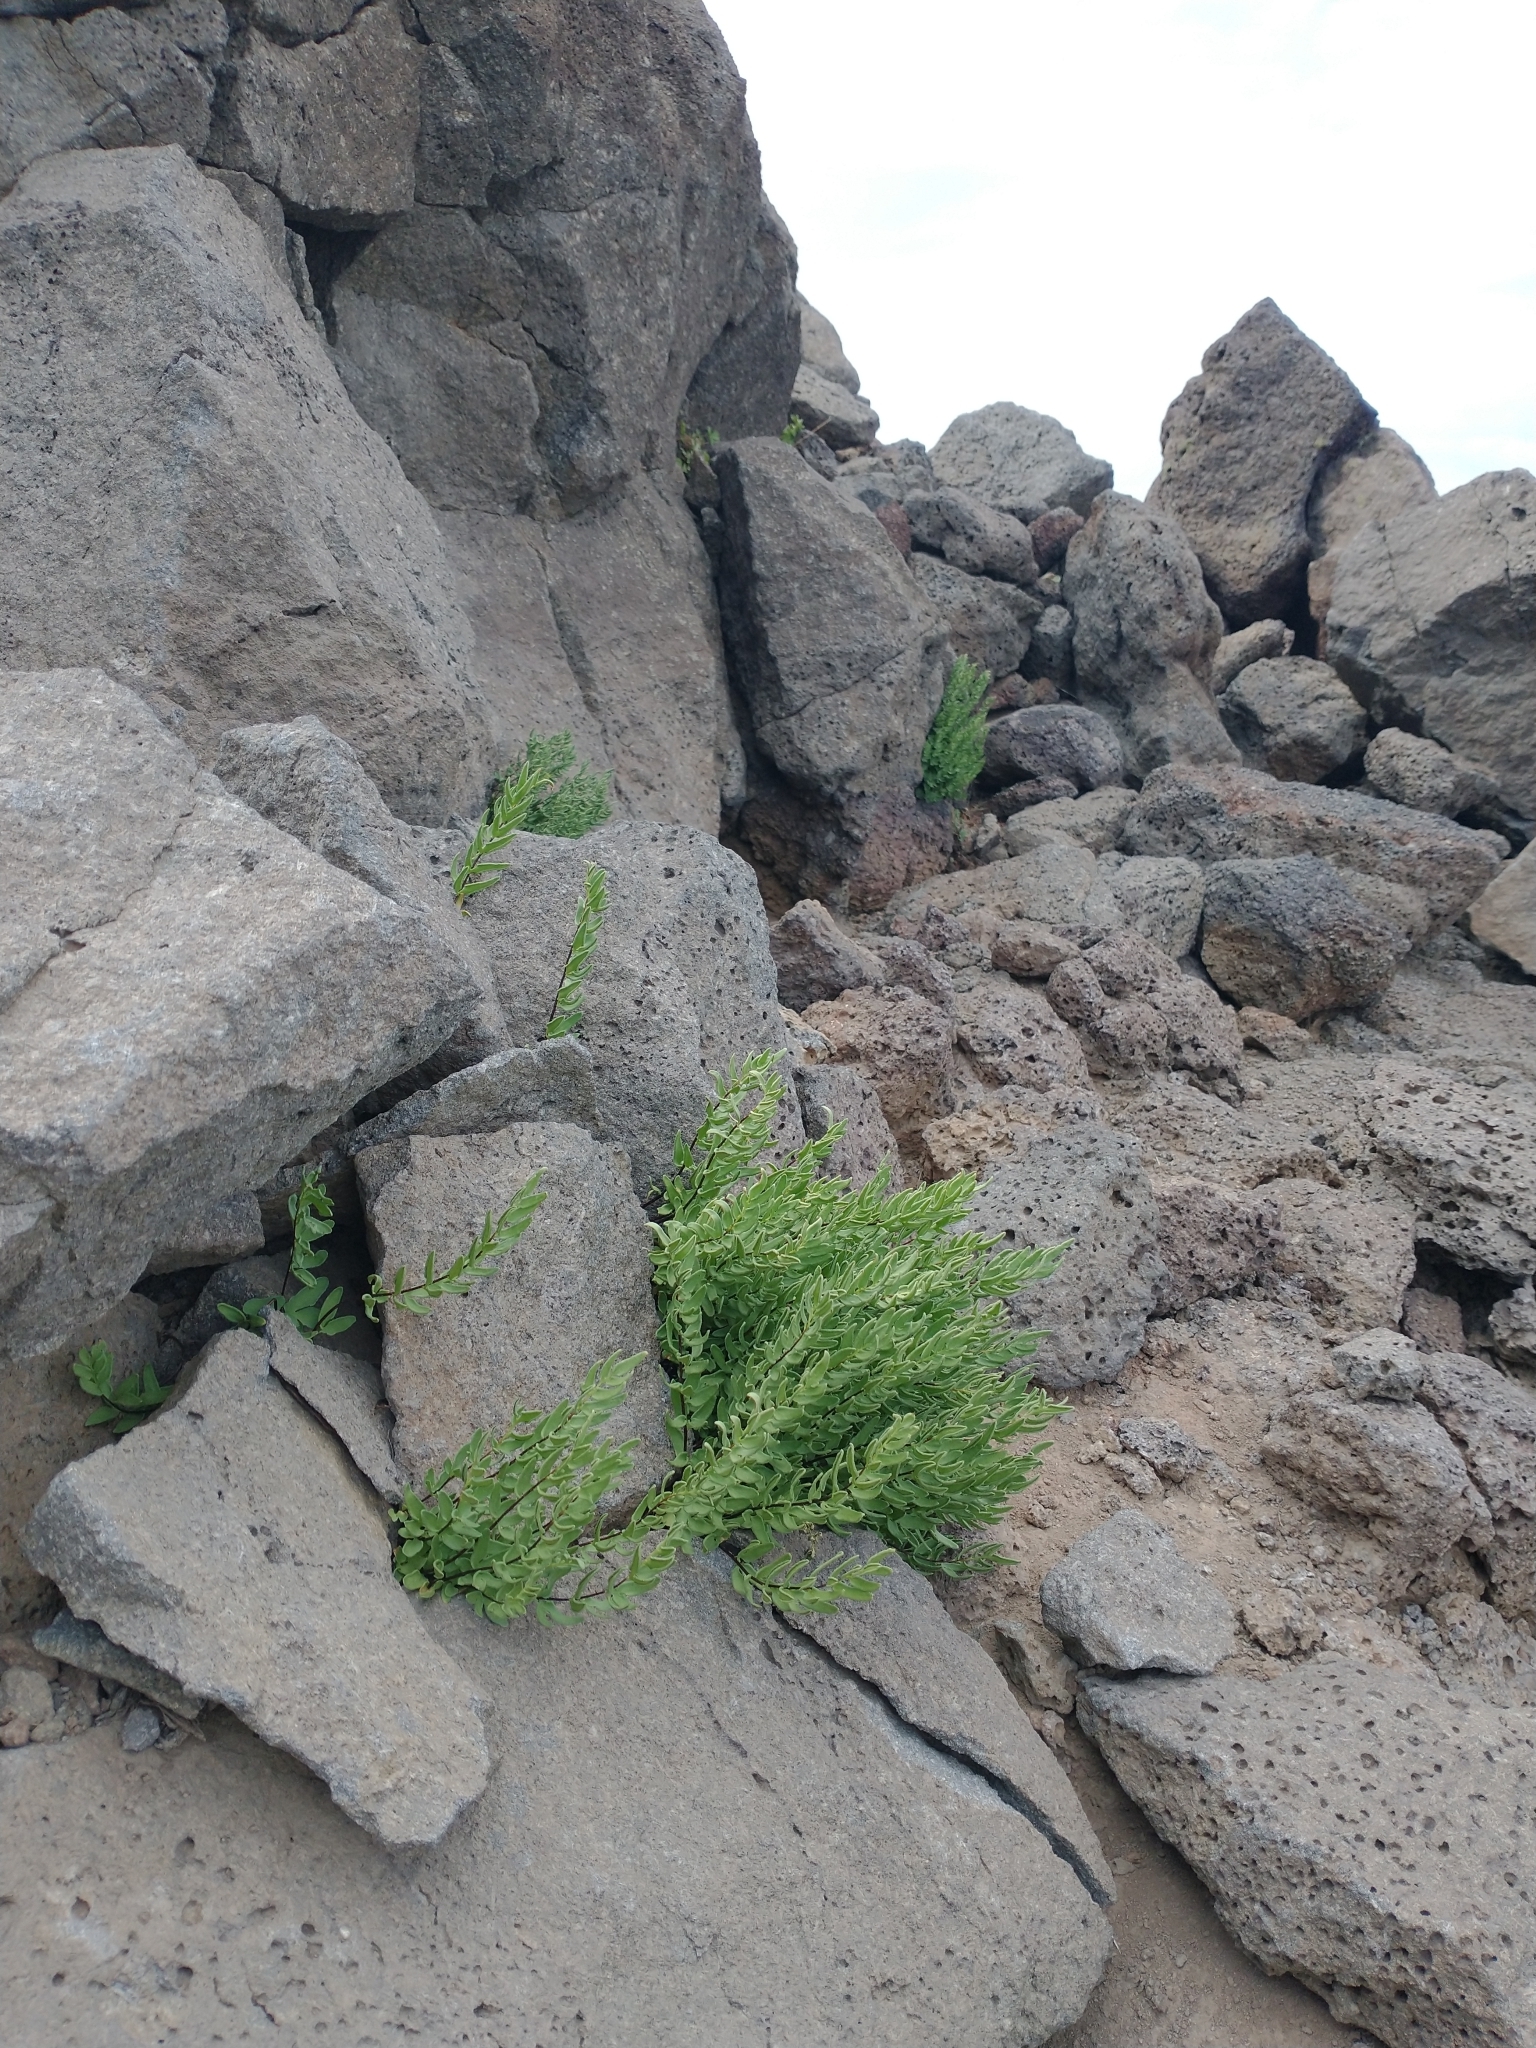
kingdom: Plantae
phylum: Tracheophyta
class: Polypodiopsida
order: Polypodiales
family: Pteridaceae
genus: Pellaea
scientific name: Pellaea breweri
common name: Brewer's cliffbrake
